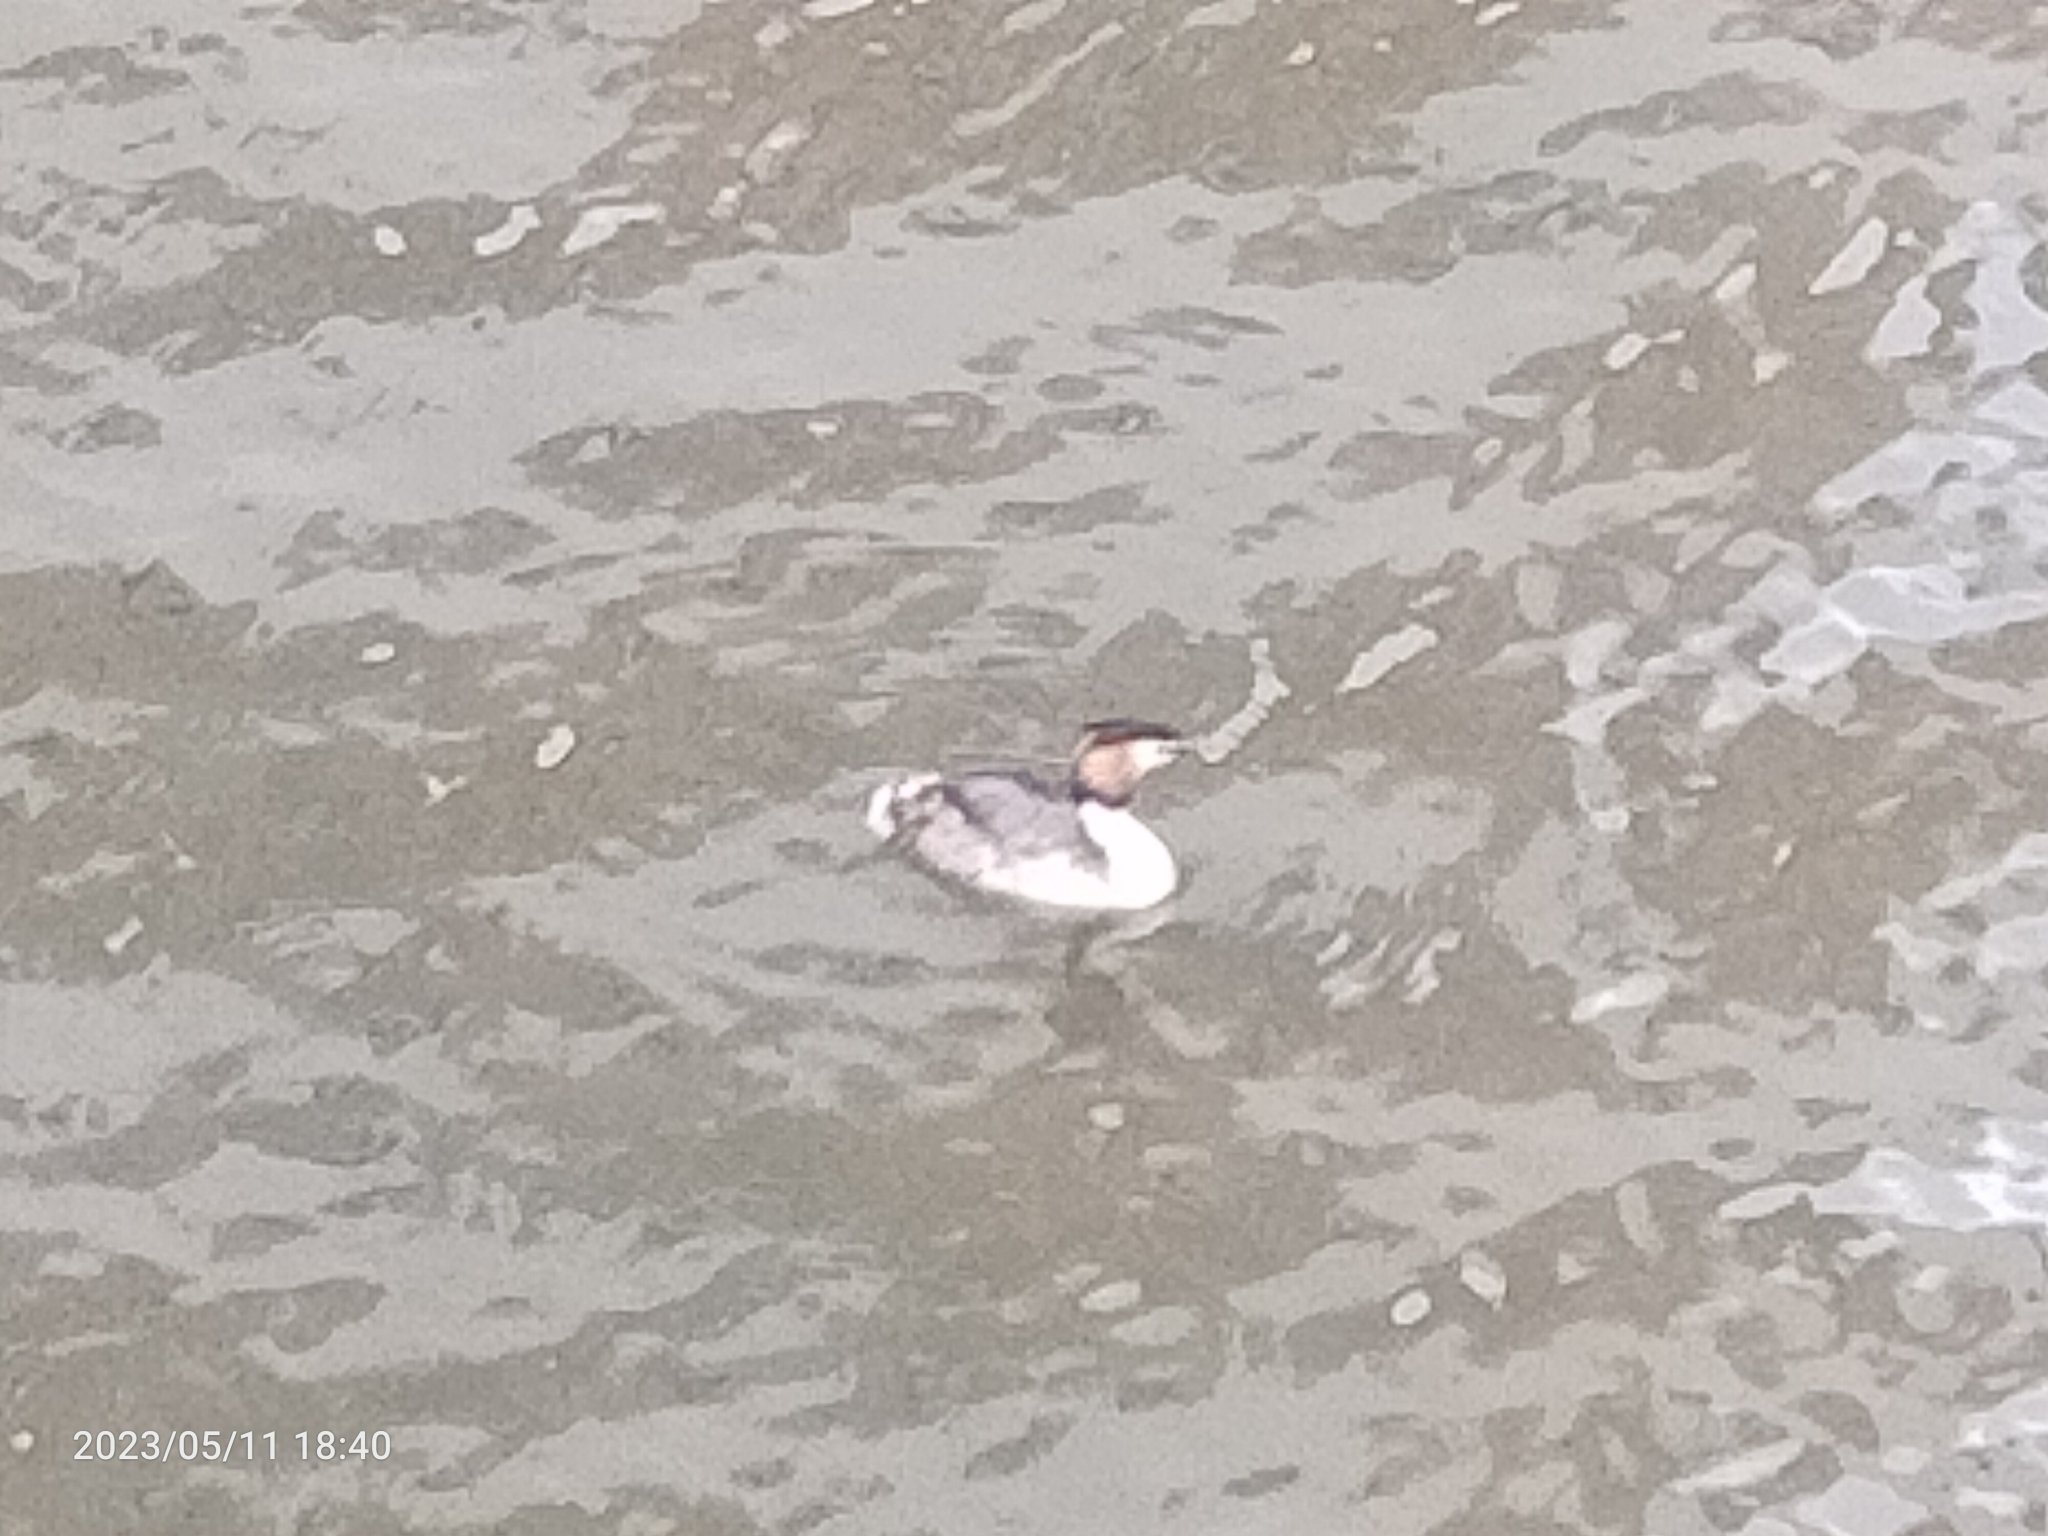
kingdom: Animalia
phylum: Chordata
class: Aves
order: Podicipediformes
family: Podicipedidae
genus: Podiceps
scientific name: Podiceps cristatus
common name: Great crested grebe
